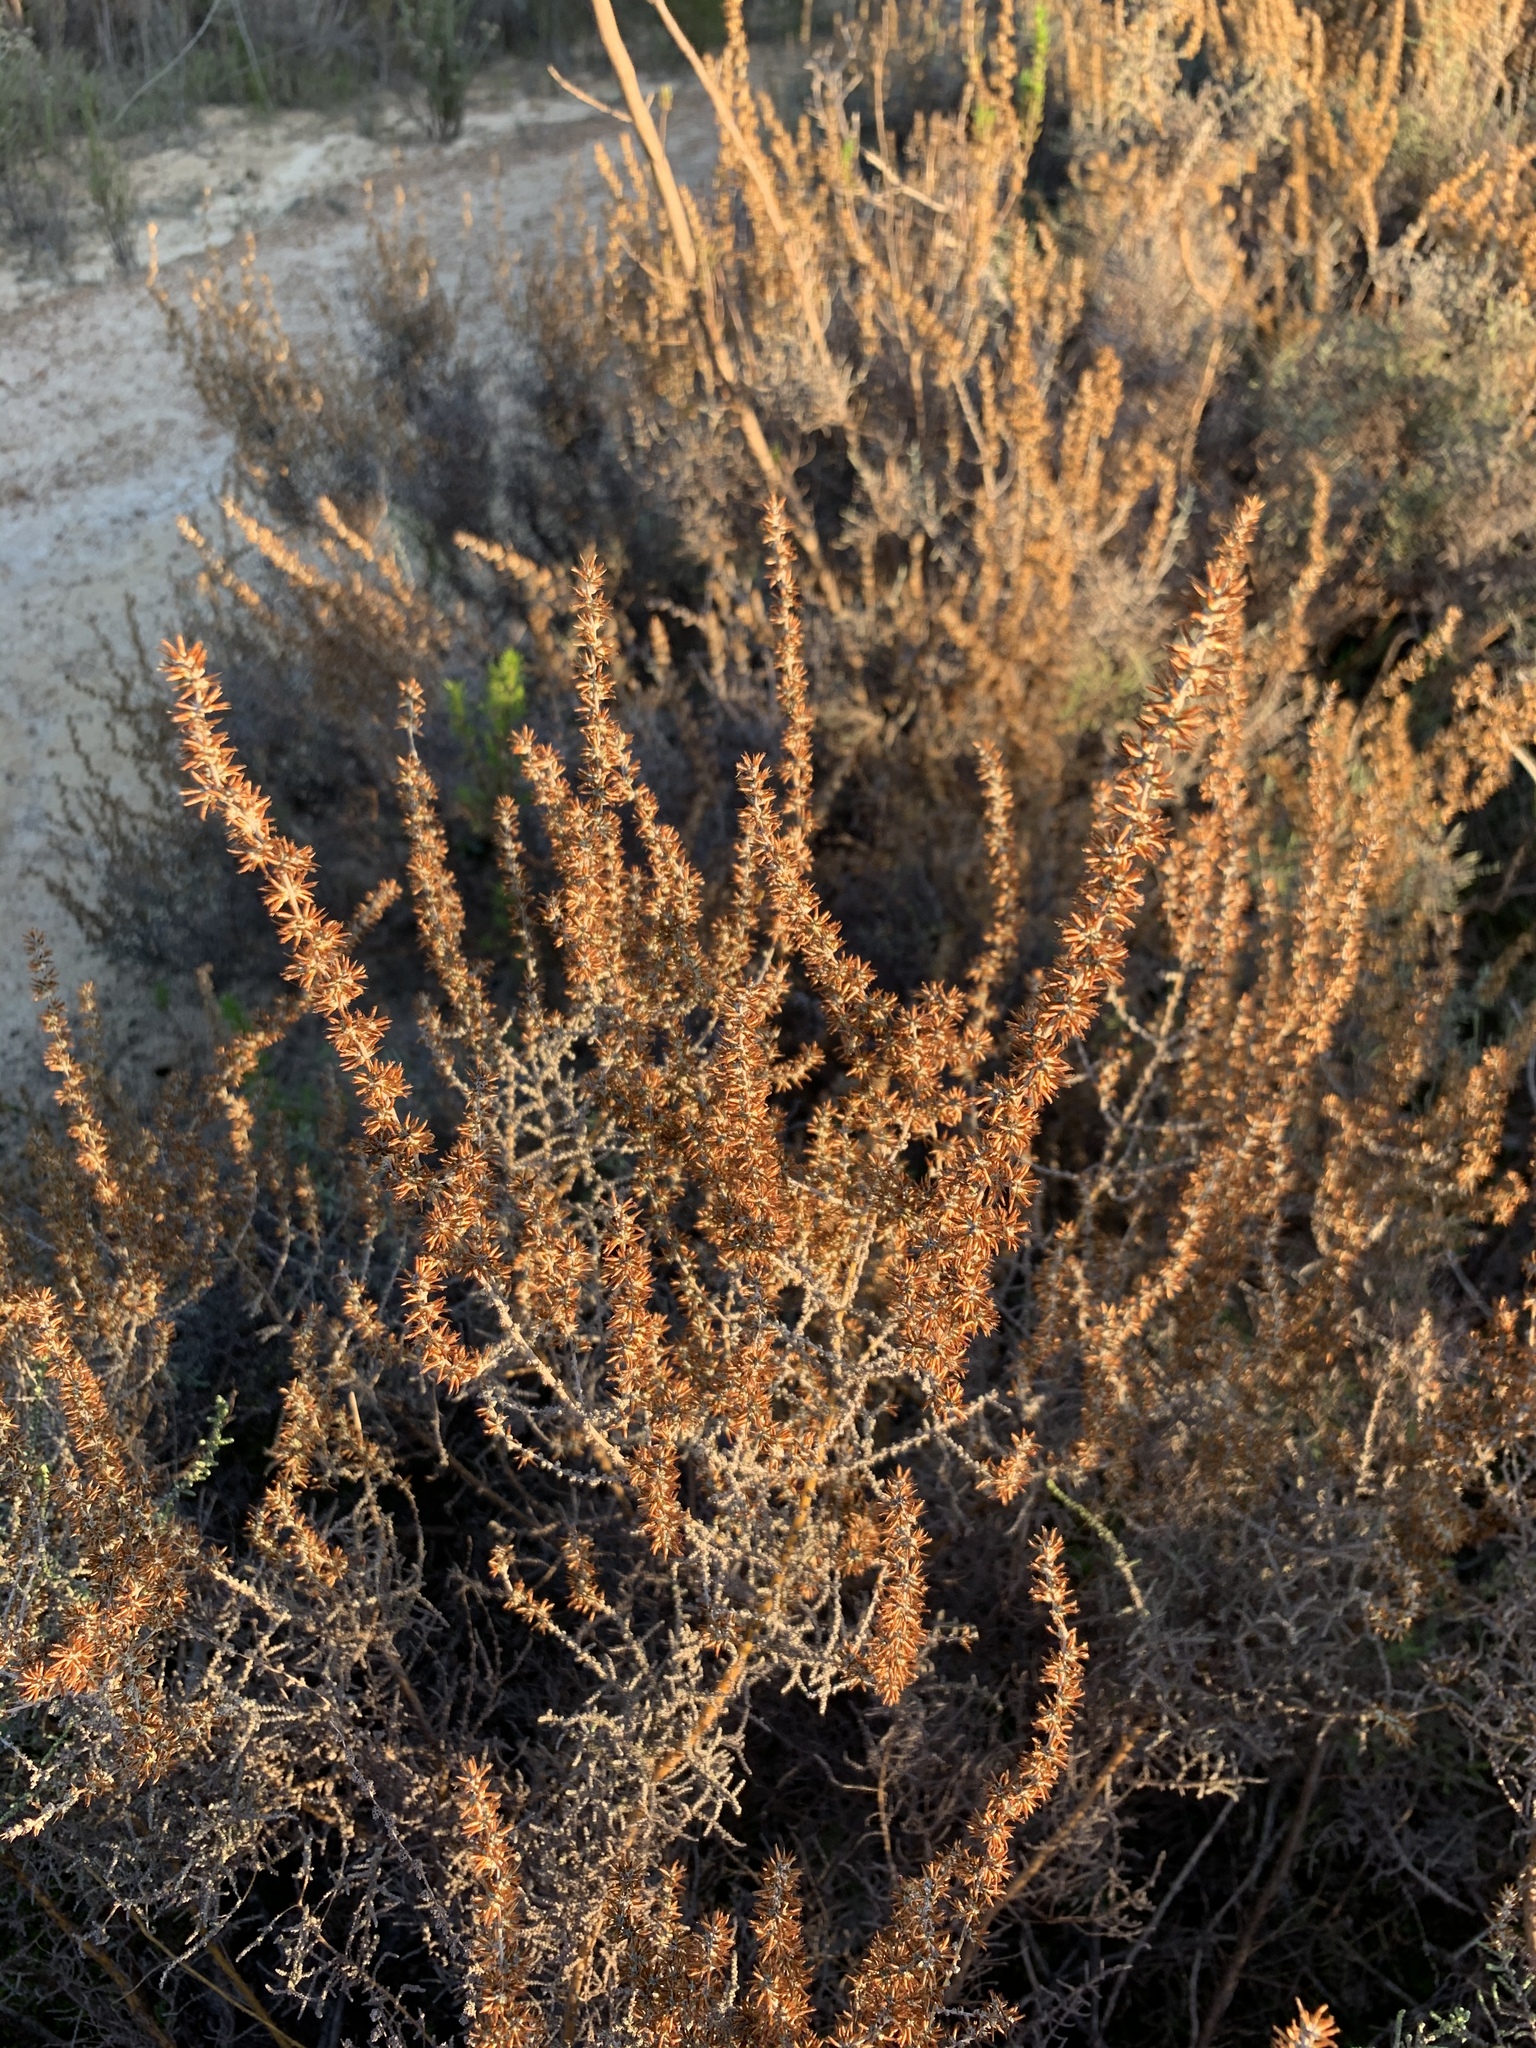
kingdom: Plantae
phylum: Tracheophyta
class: Magnoliopsida
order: Asterales
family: Asteraceae
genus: Seriphium
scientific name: Seriphium plumosum
